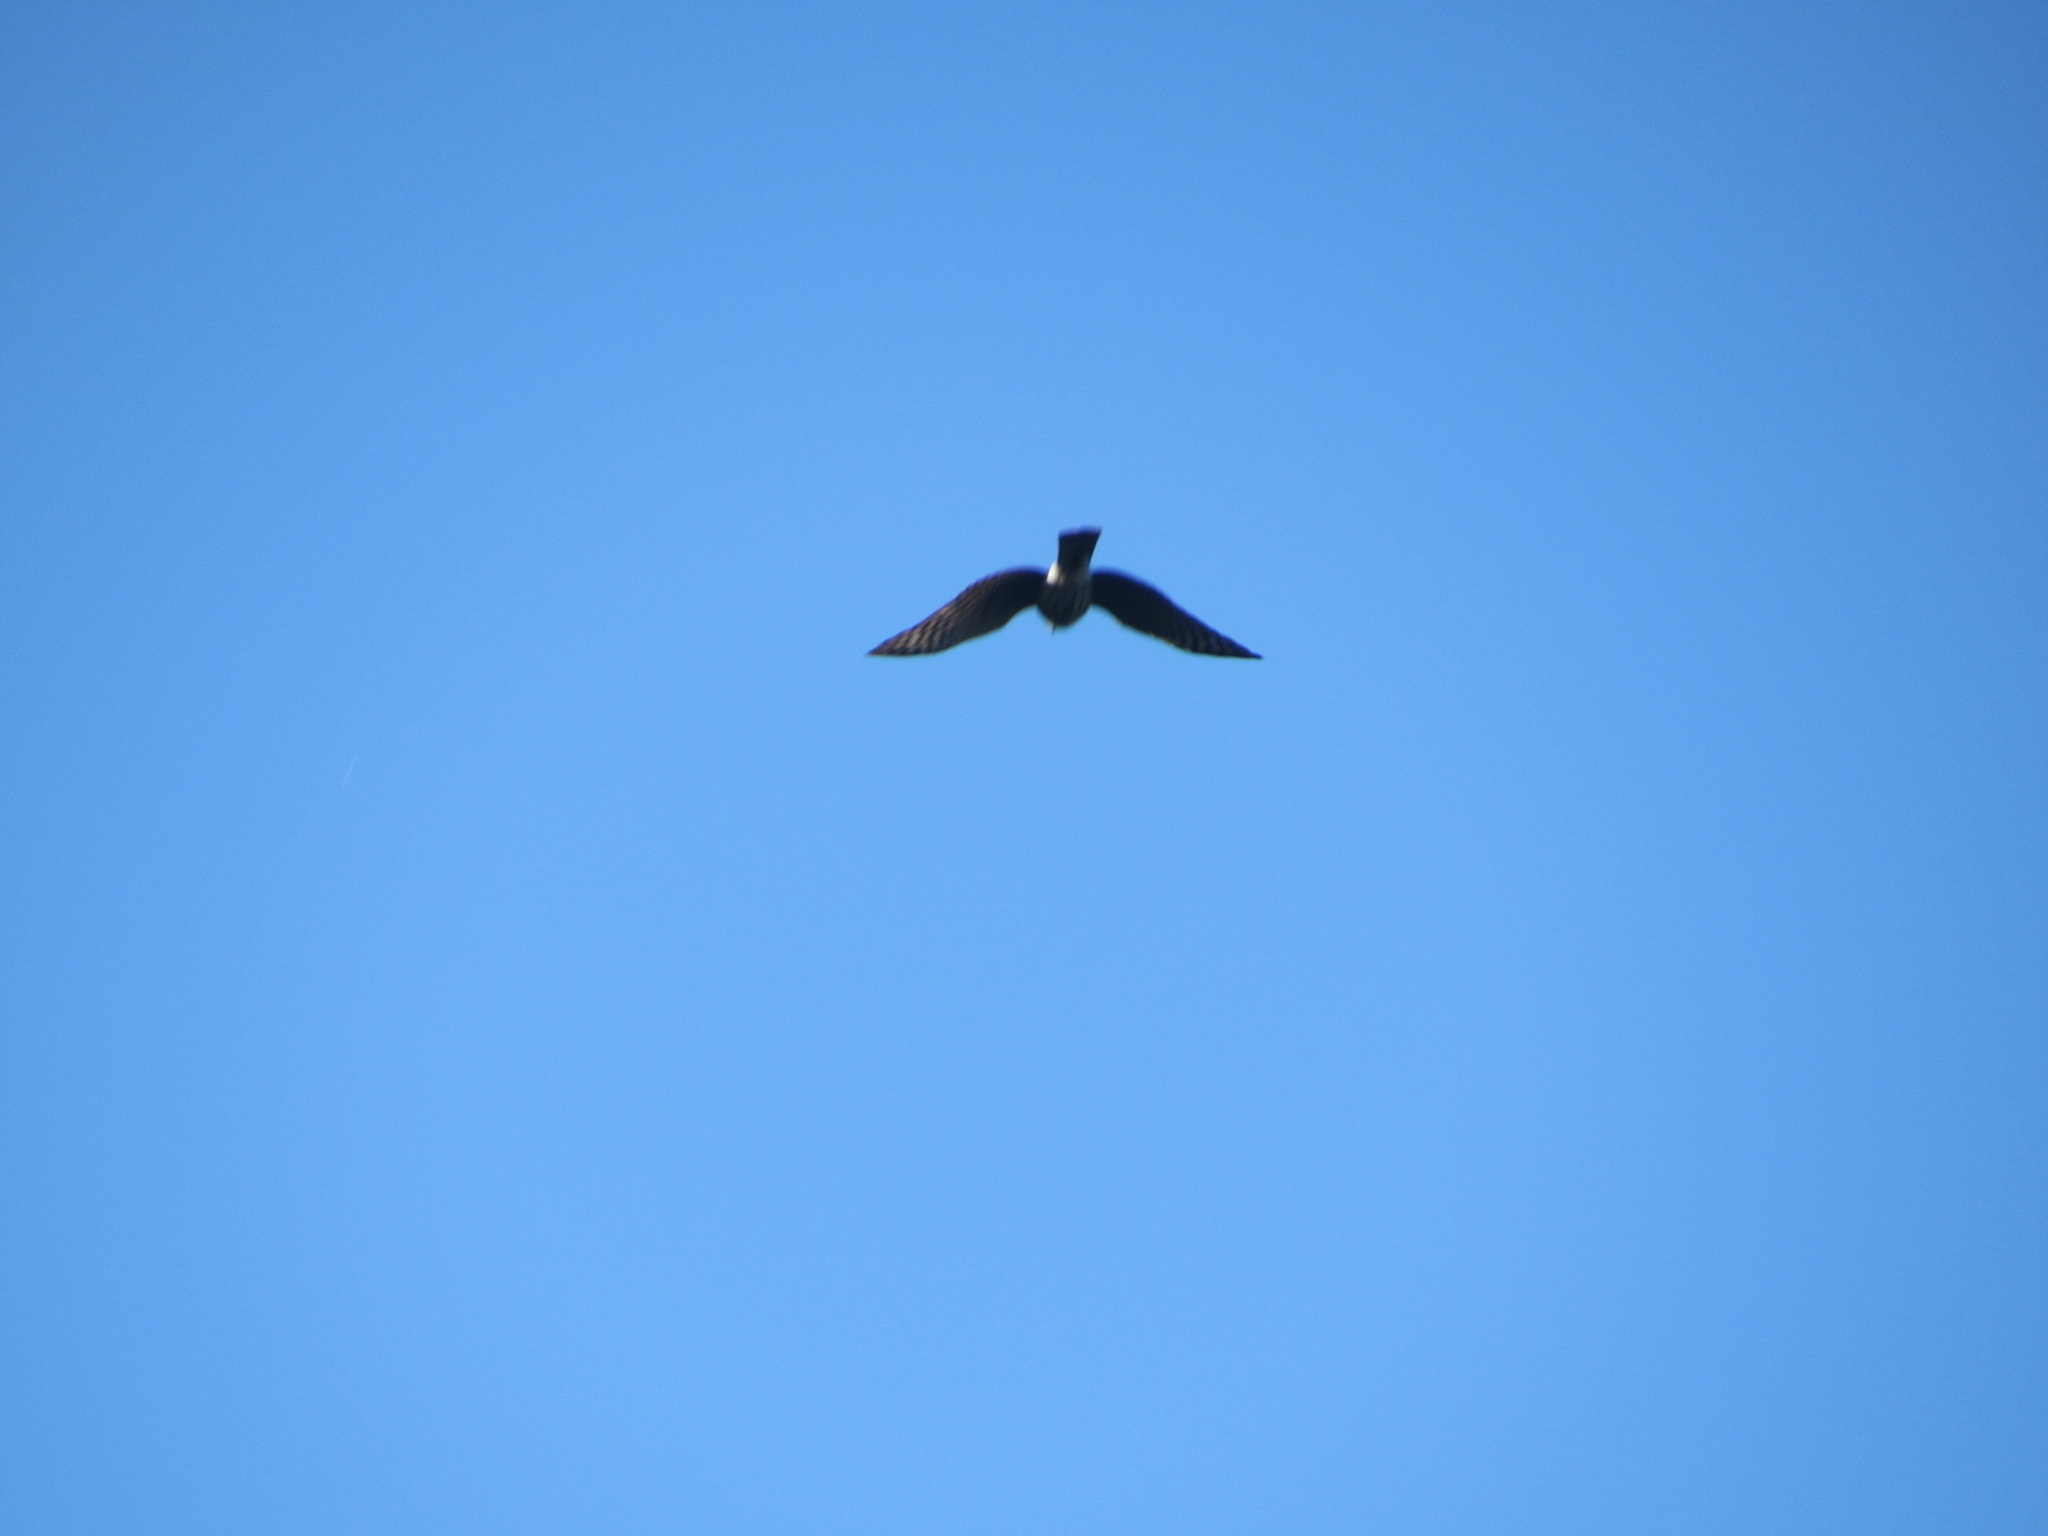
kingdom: Animalia
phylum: Chordata
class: Aves
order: Accipitriformes
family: Accipitridae
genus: Accipiter
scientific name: Accipiter striatus
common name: Sharp-shinned hawk
